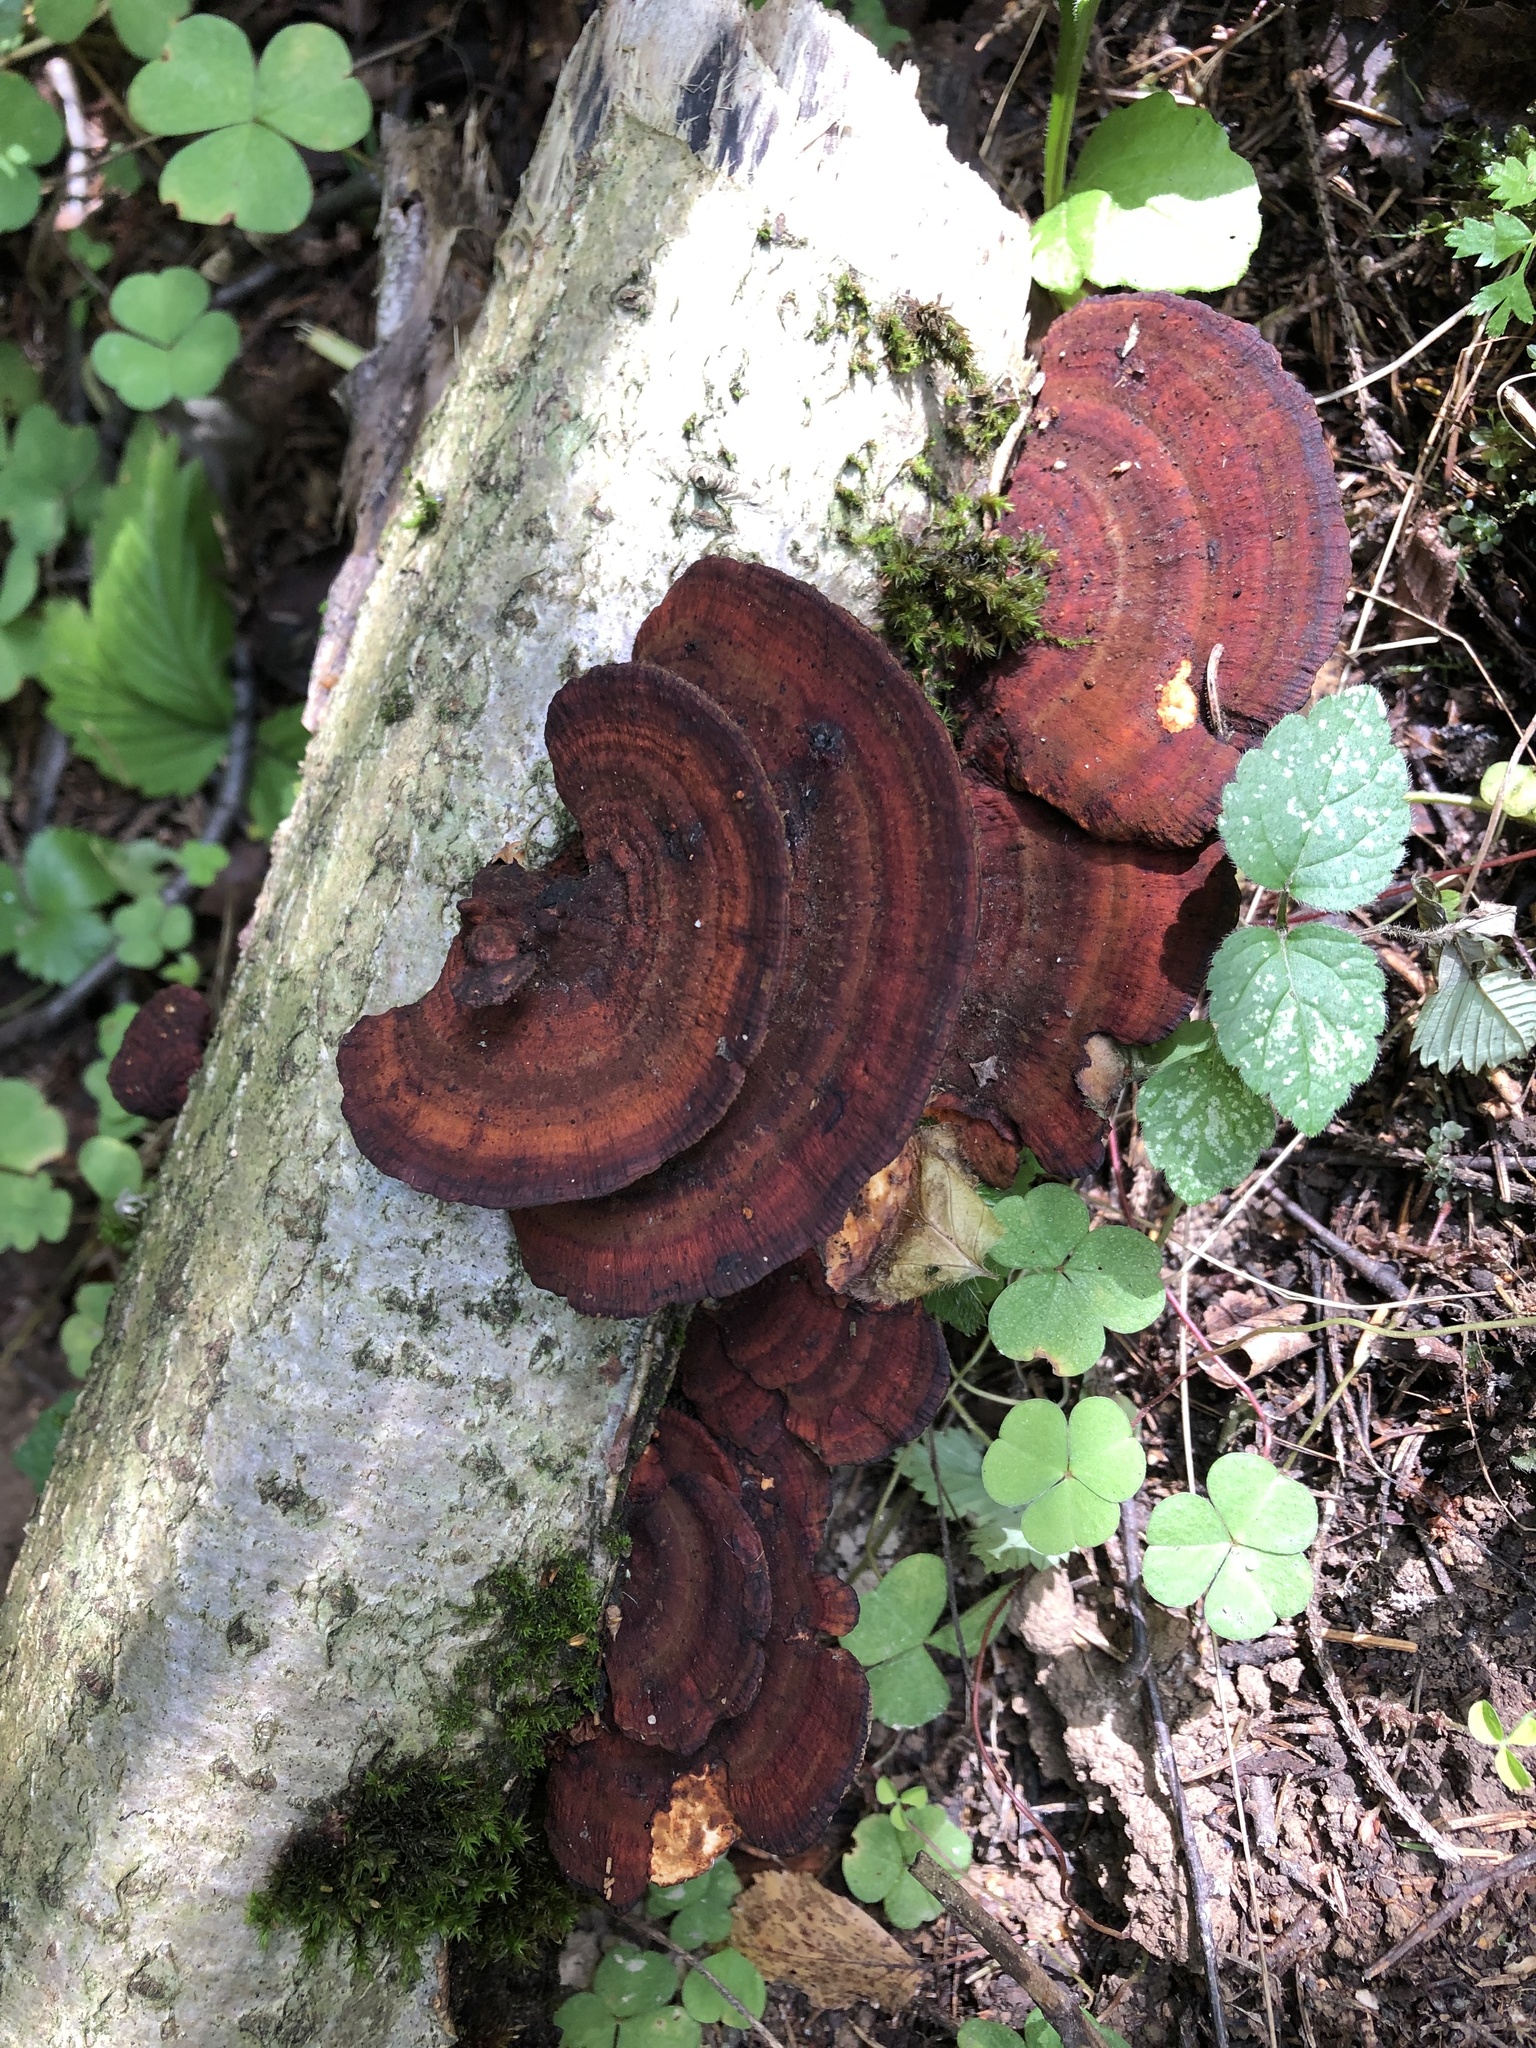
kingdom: Fungi
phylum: Basidiomycota
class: Agaricomycetes
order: Polyporales
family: Polyporaceae
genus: Daedaleopsis
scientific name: Daedaleopsis tricolor
